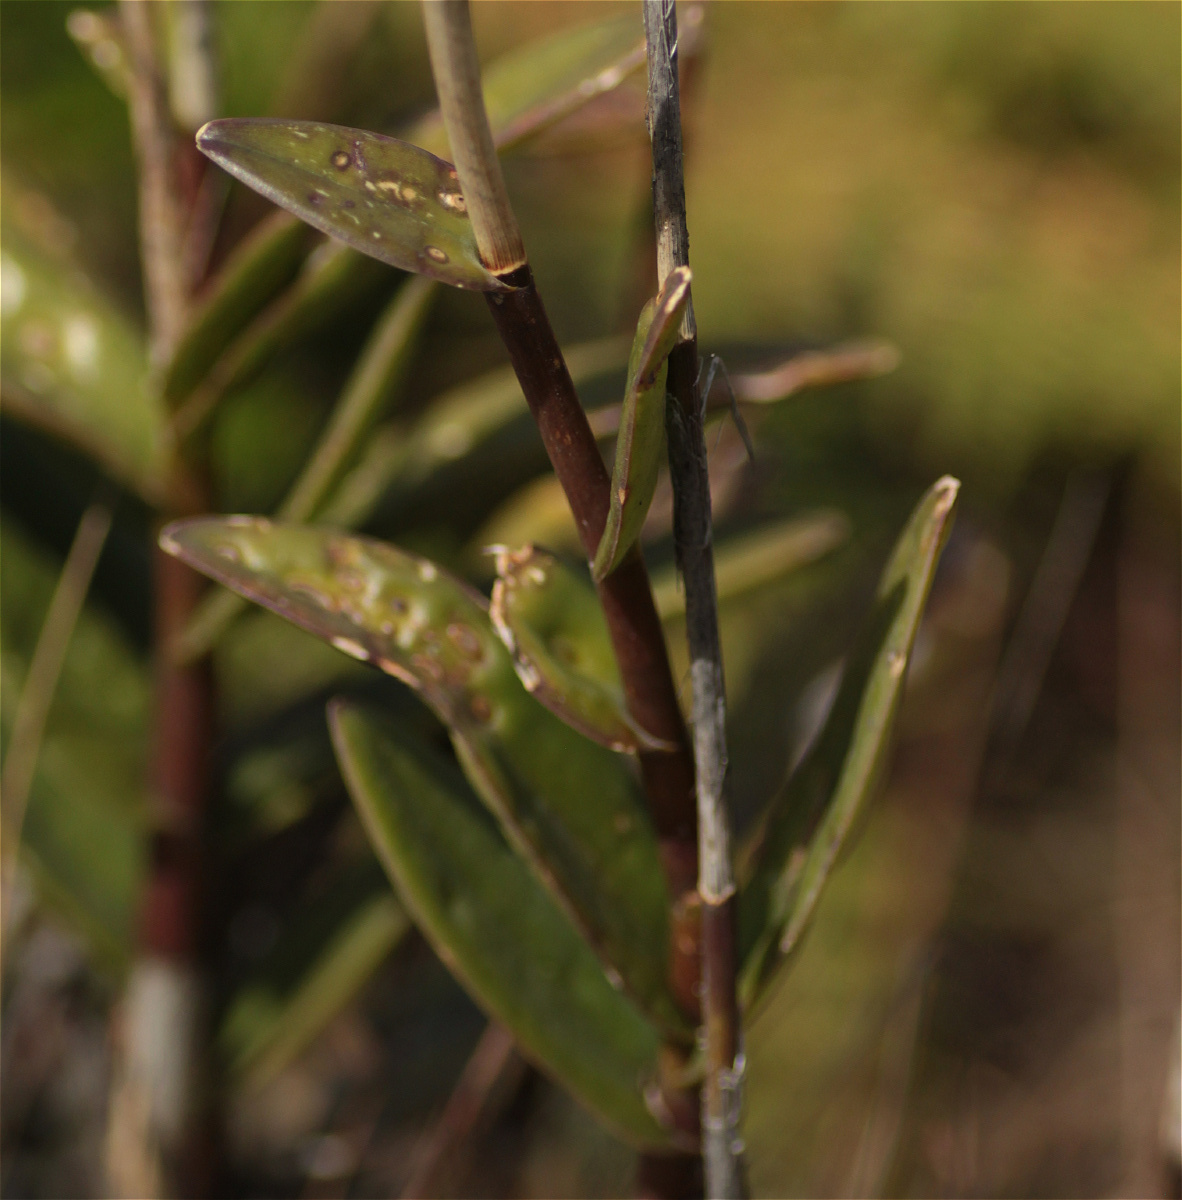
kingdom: Plantae
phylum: Tracheophyta
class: Liliopsida
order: Asparagales
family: Orchidaceae
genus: Epidendrum
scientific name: Epidendrum arachnoglossum
